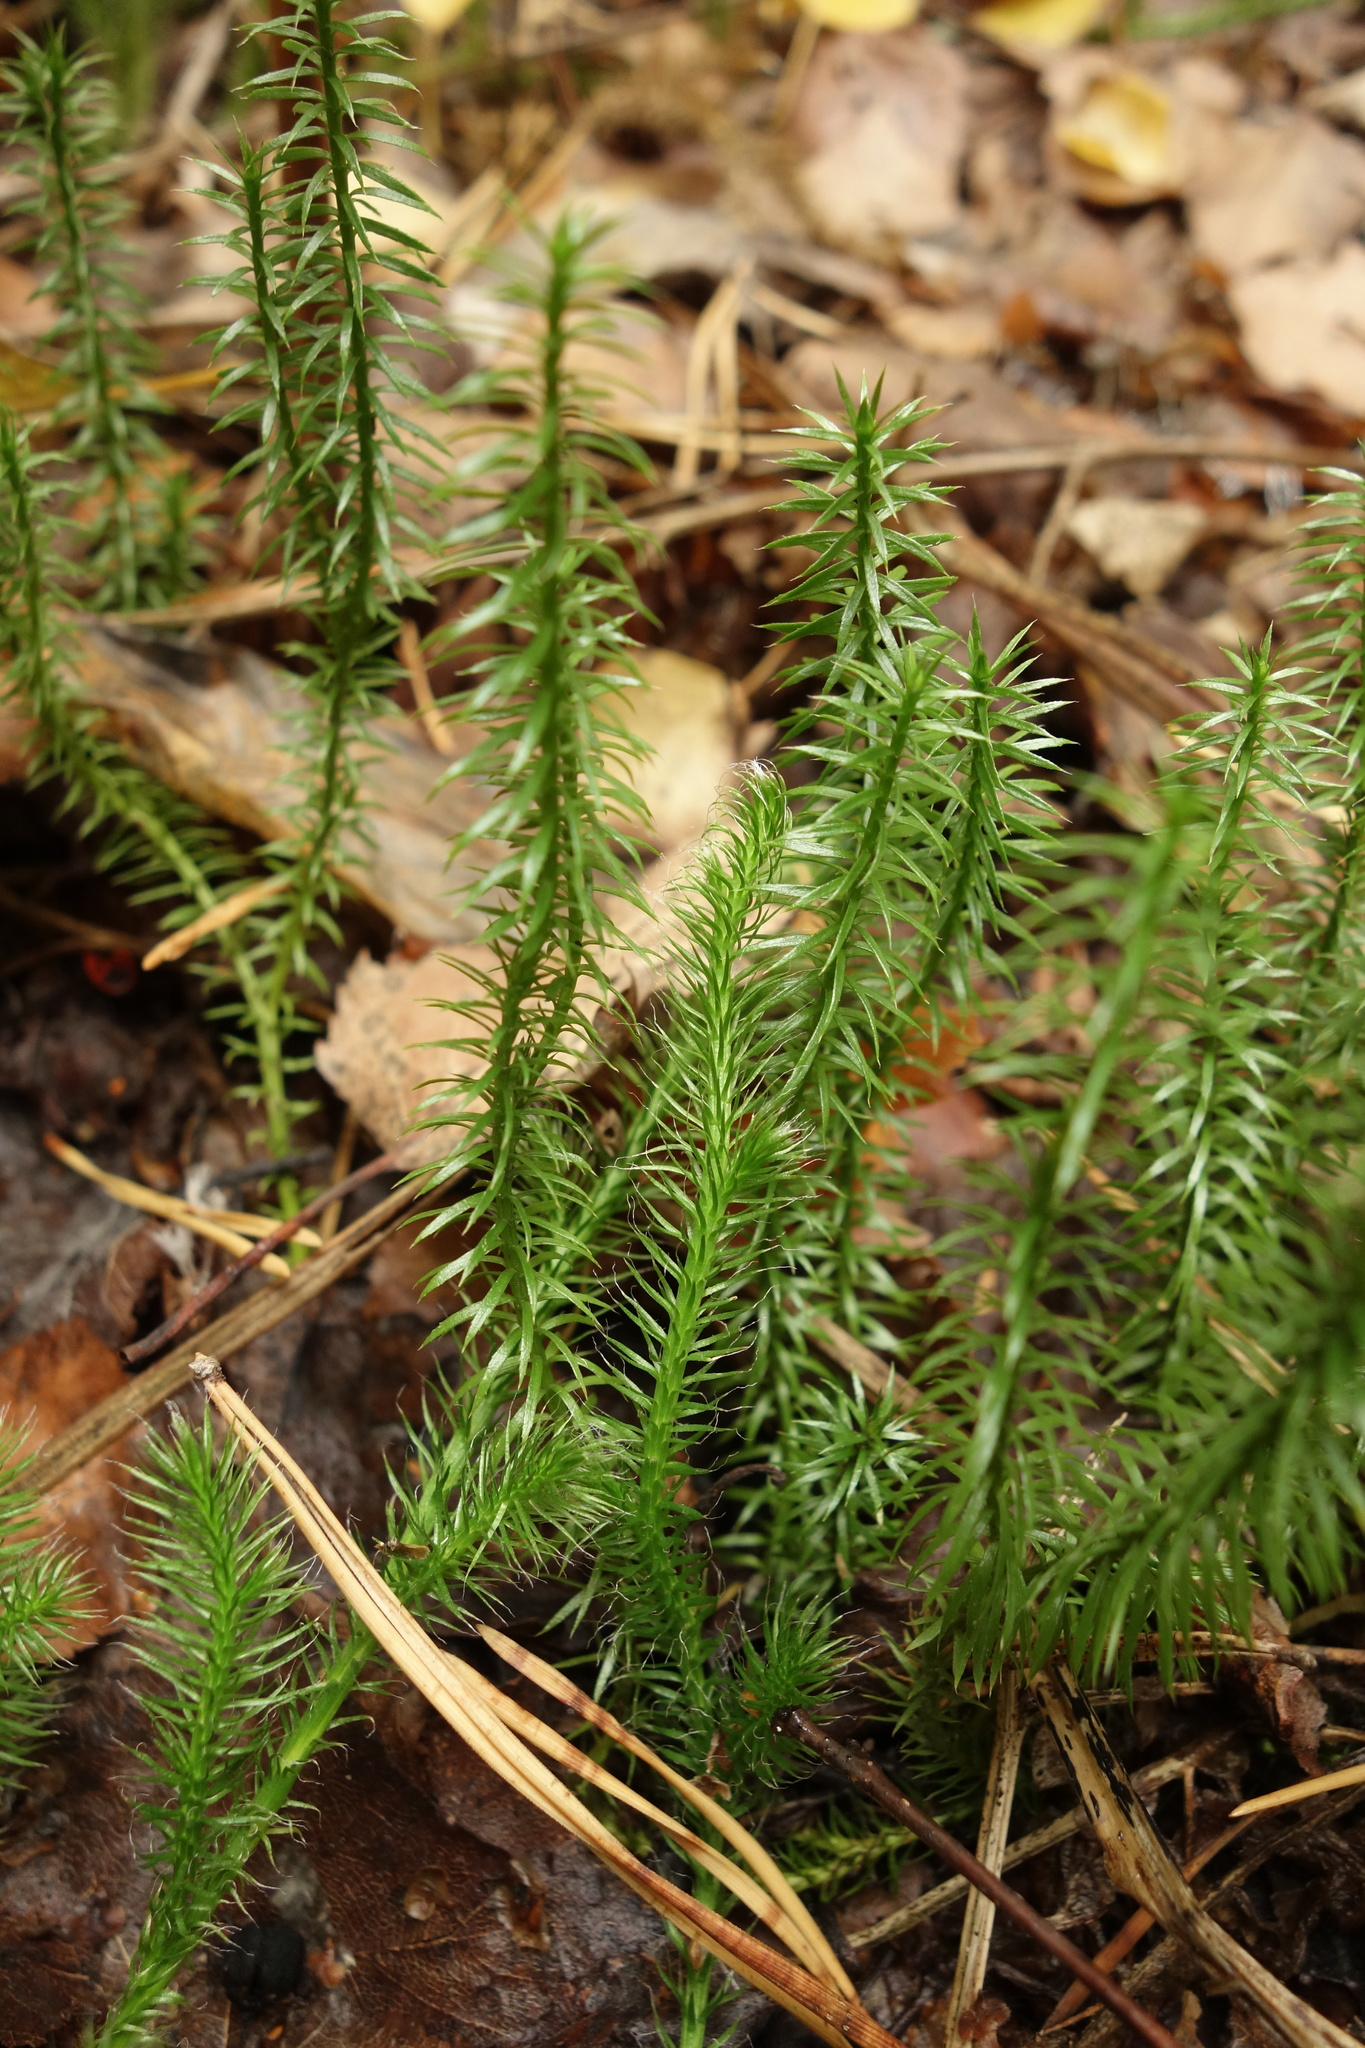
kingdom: Plantae
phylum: Tracheophyta
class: Lycopodiopsida
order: Lycopodiales
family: Lycopodiaceae
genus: Spinulum
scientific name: Spinulum annotinum
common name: Interrupted club-moss
